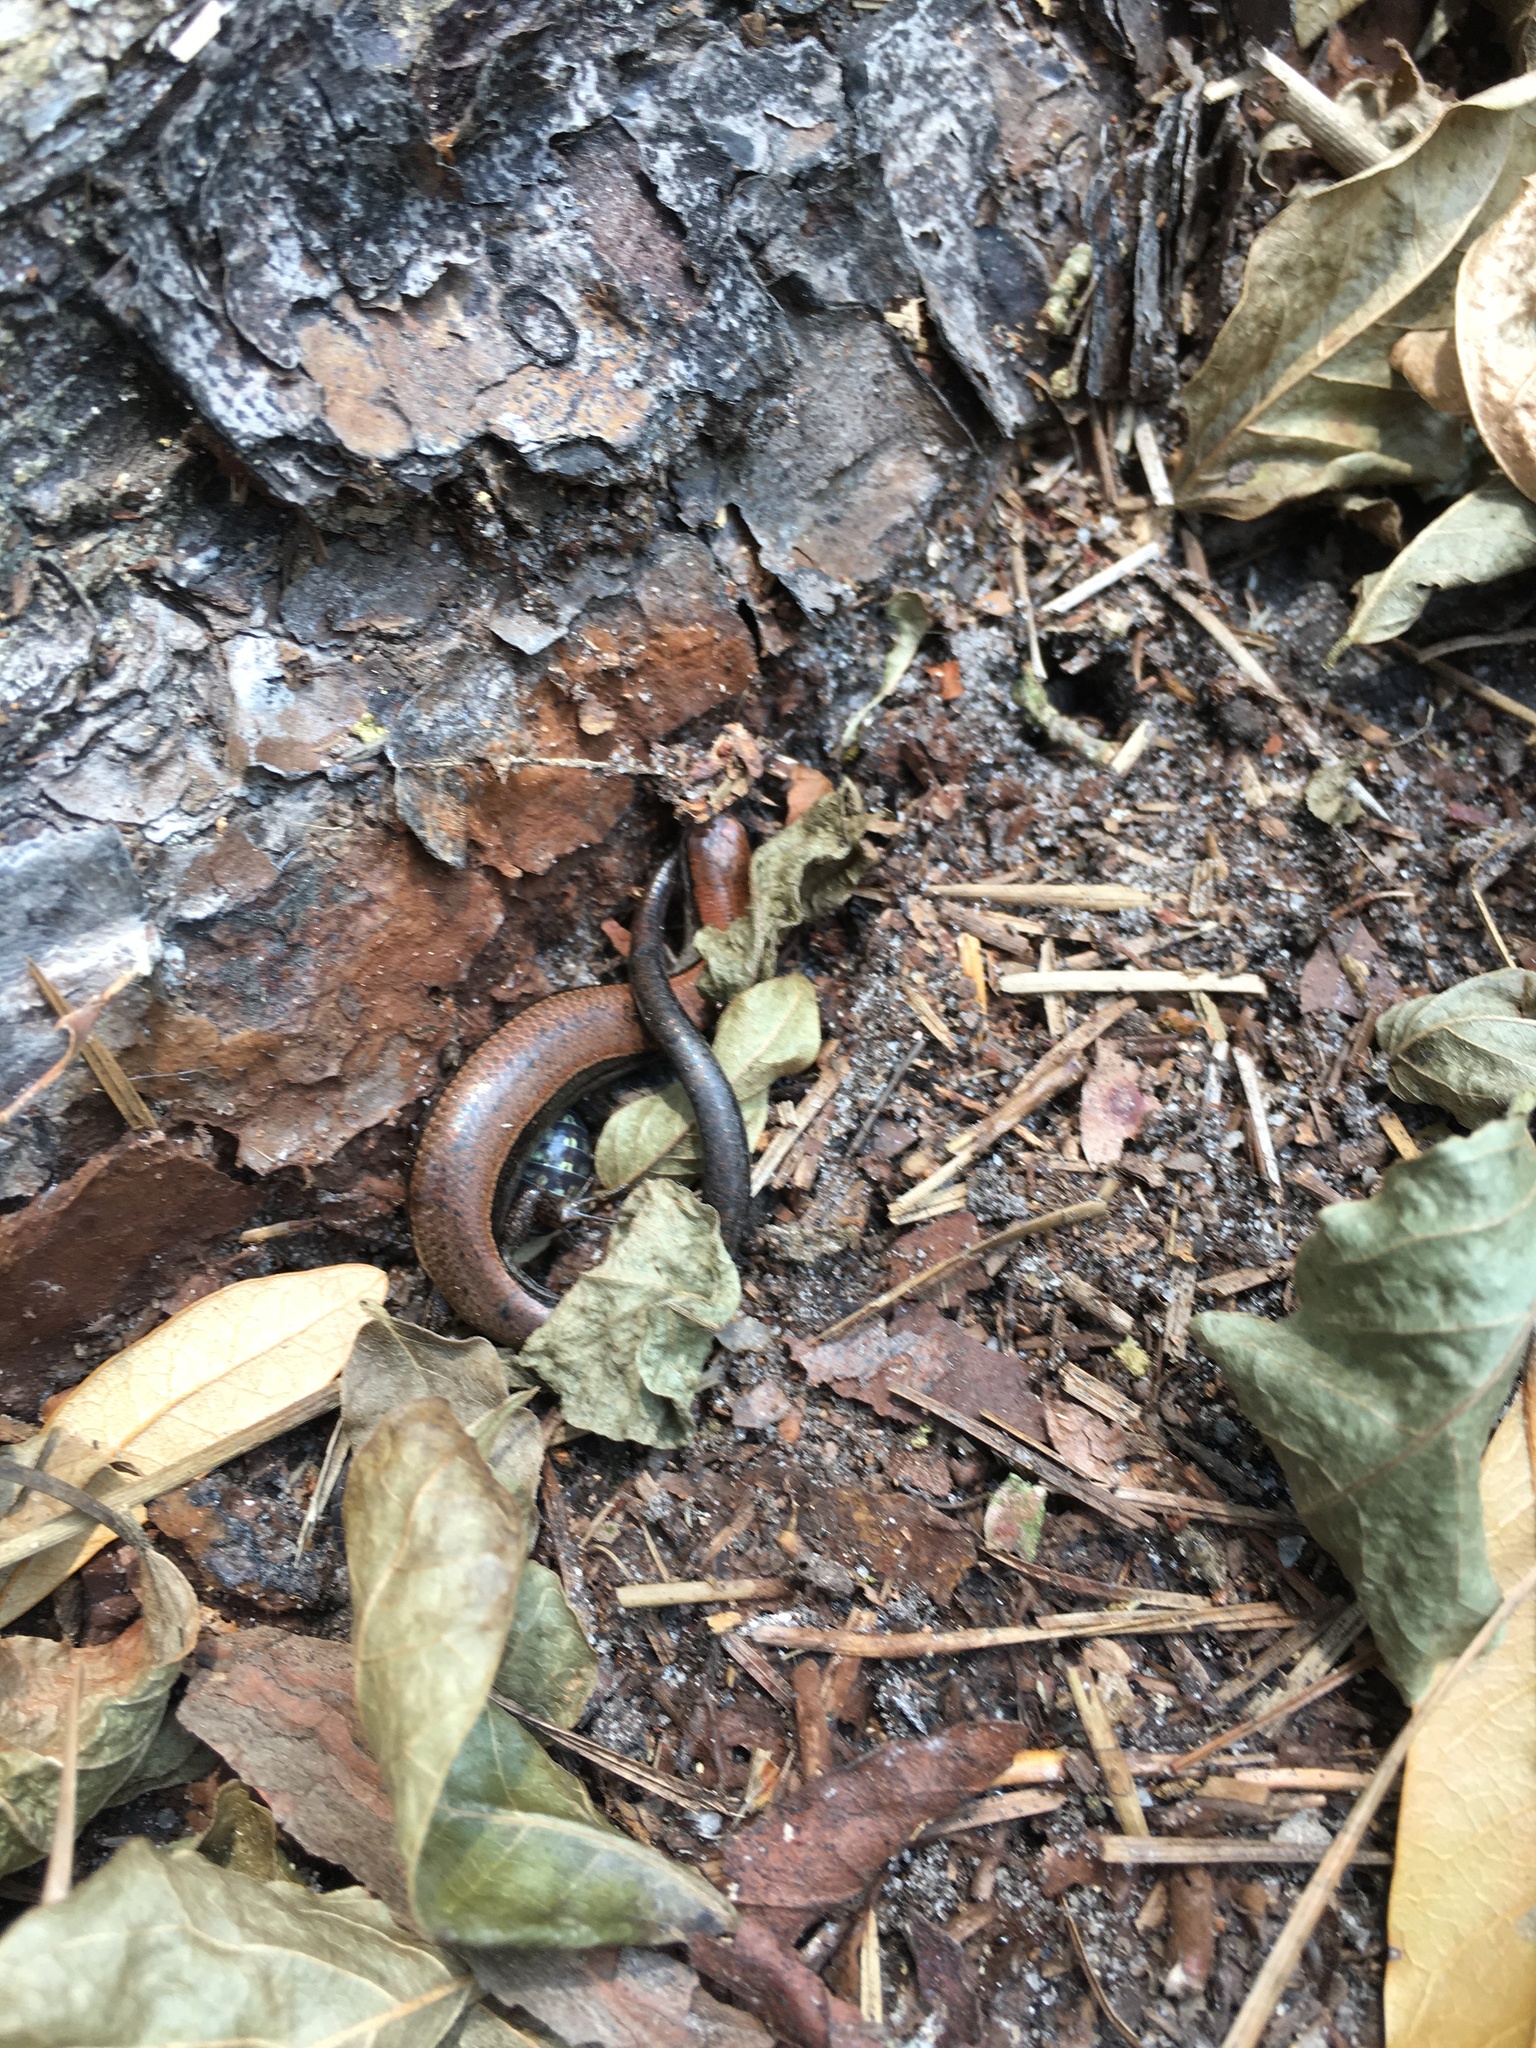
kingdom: Animalia
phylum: Chordata
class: Squamata
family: Scincidae
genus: Scincella
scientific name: Scincella lateralis
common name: Ground skink
